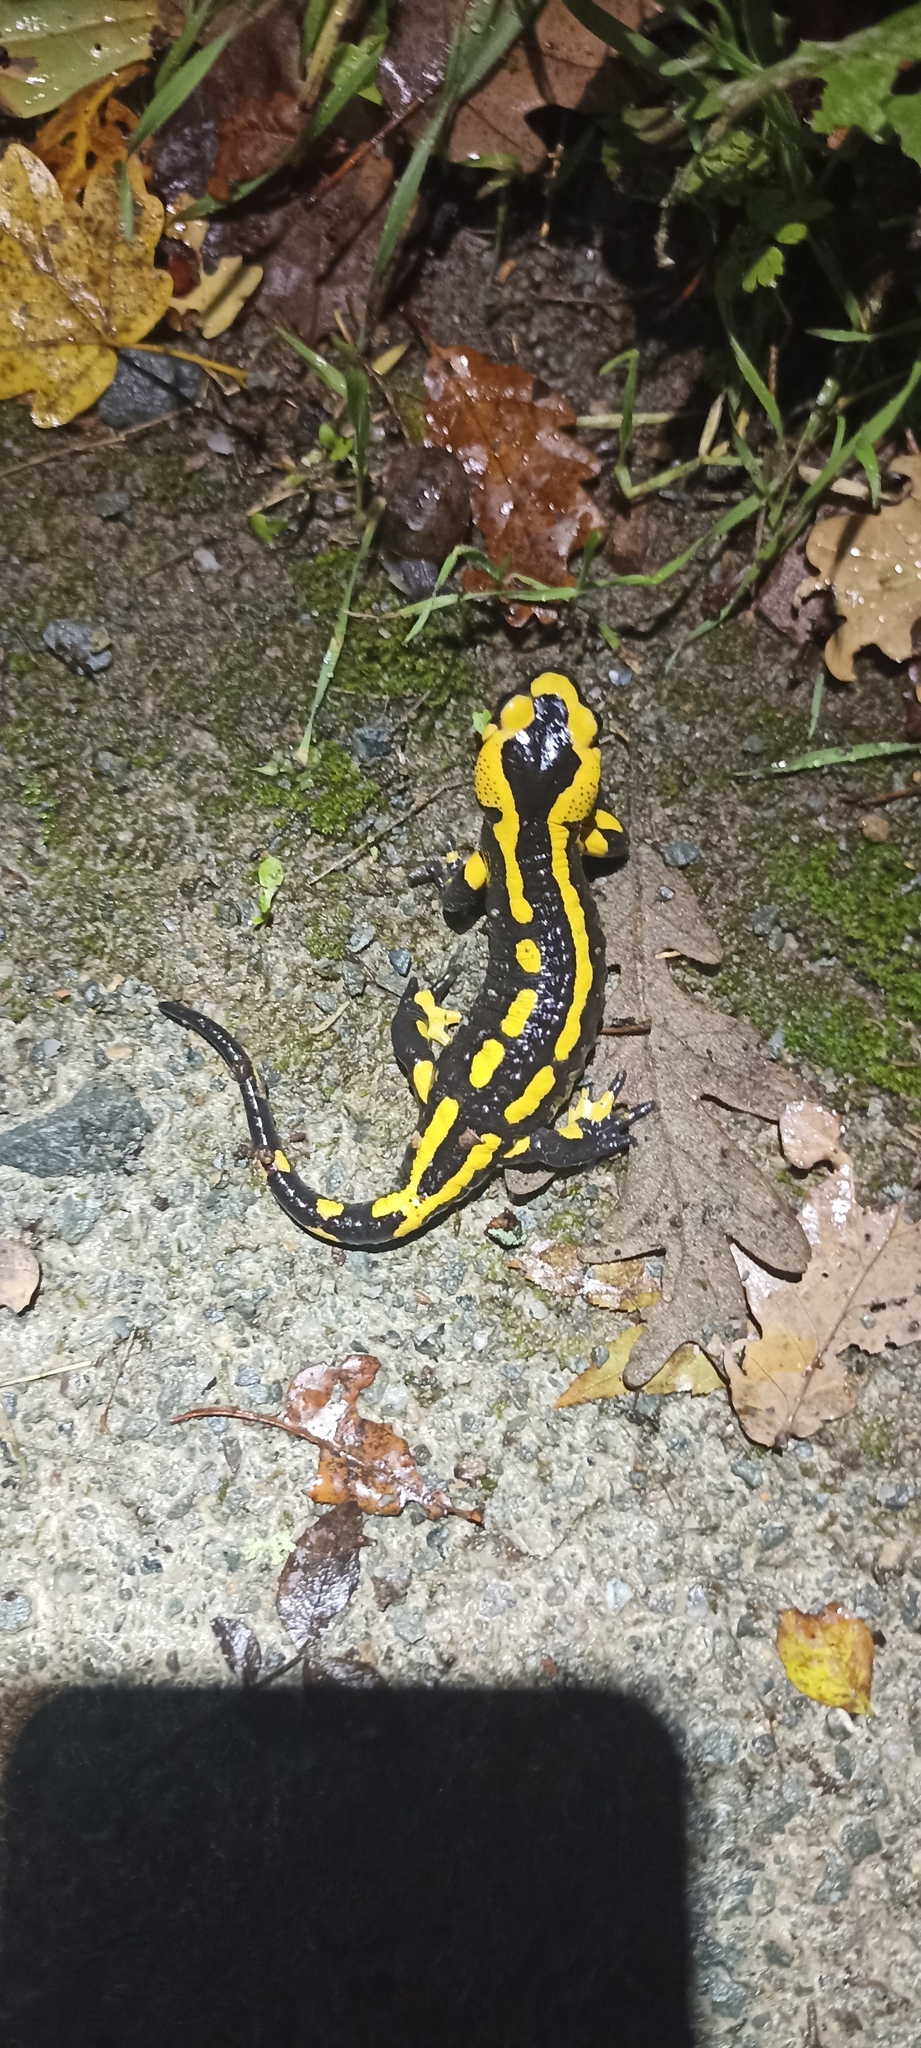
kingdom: Animalia
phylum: Chordata
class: Amphibia
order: Caudata
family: Salamandridae
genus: Salamandra
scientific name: Salamandra salamandra
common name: Fire salamander
